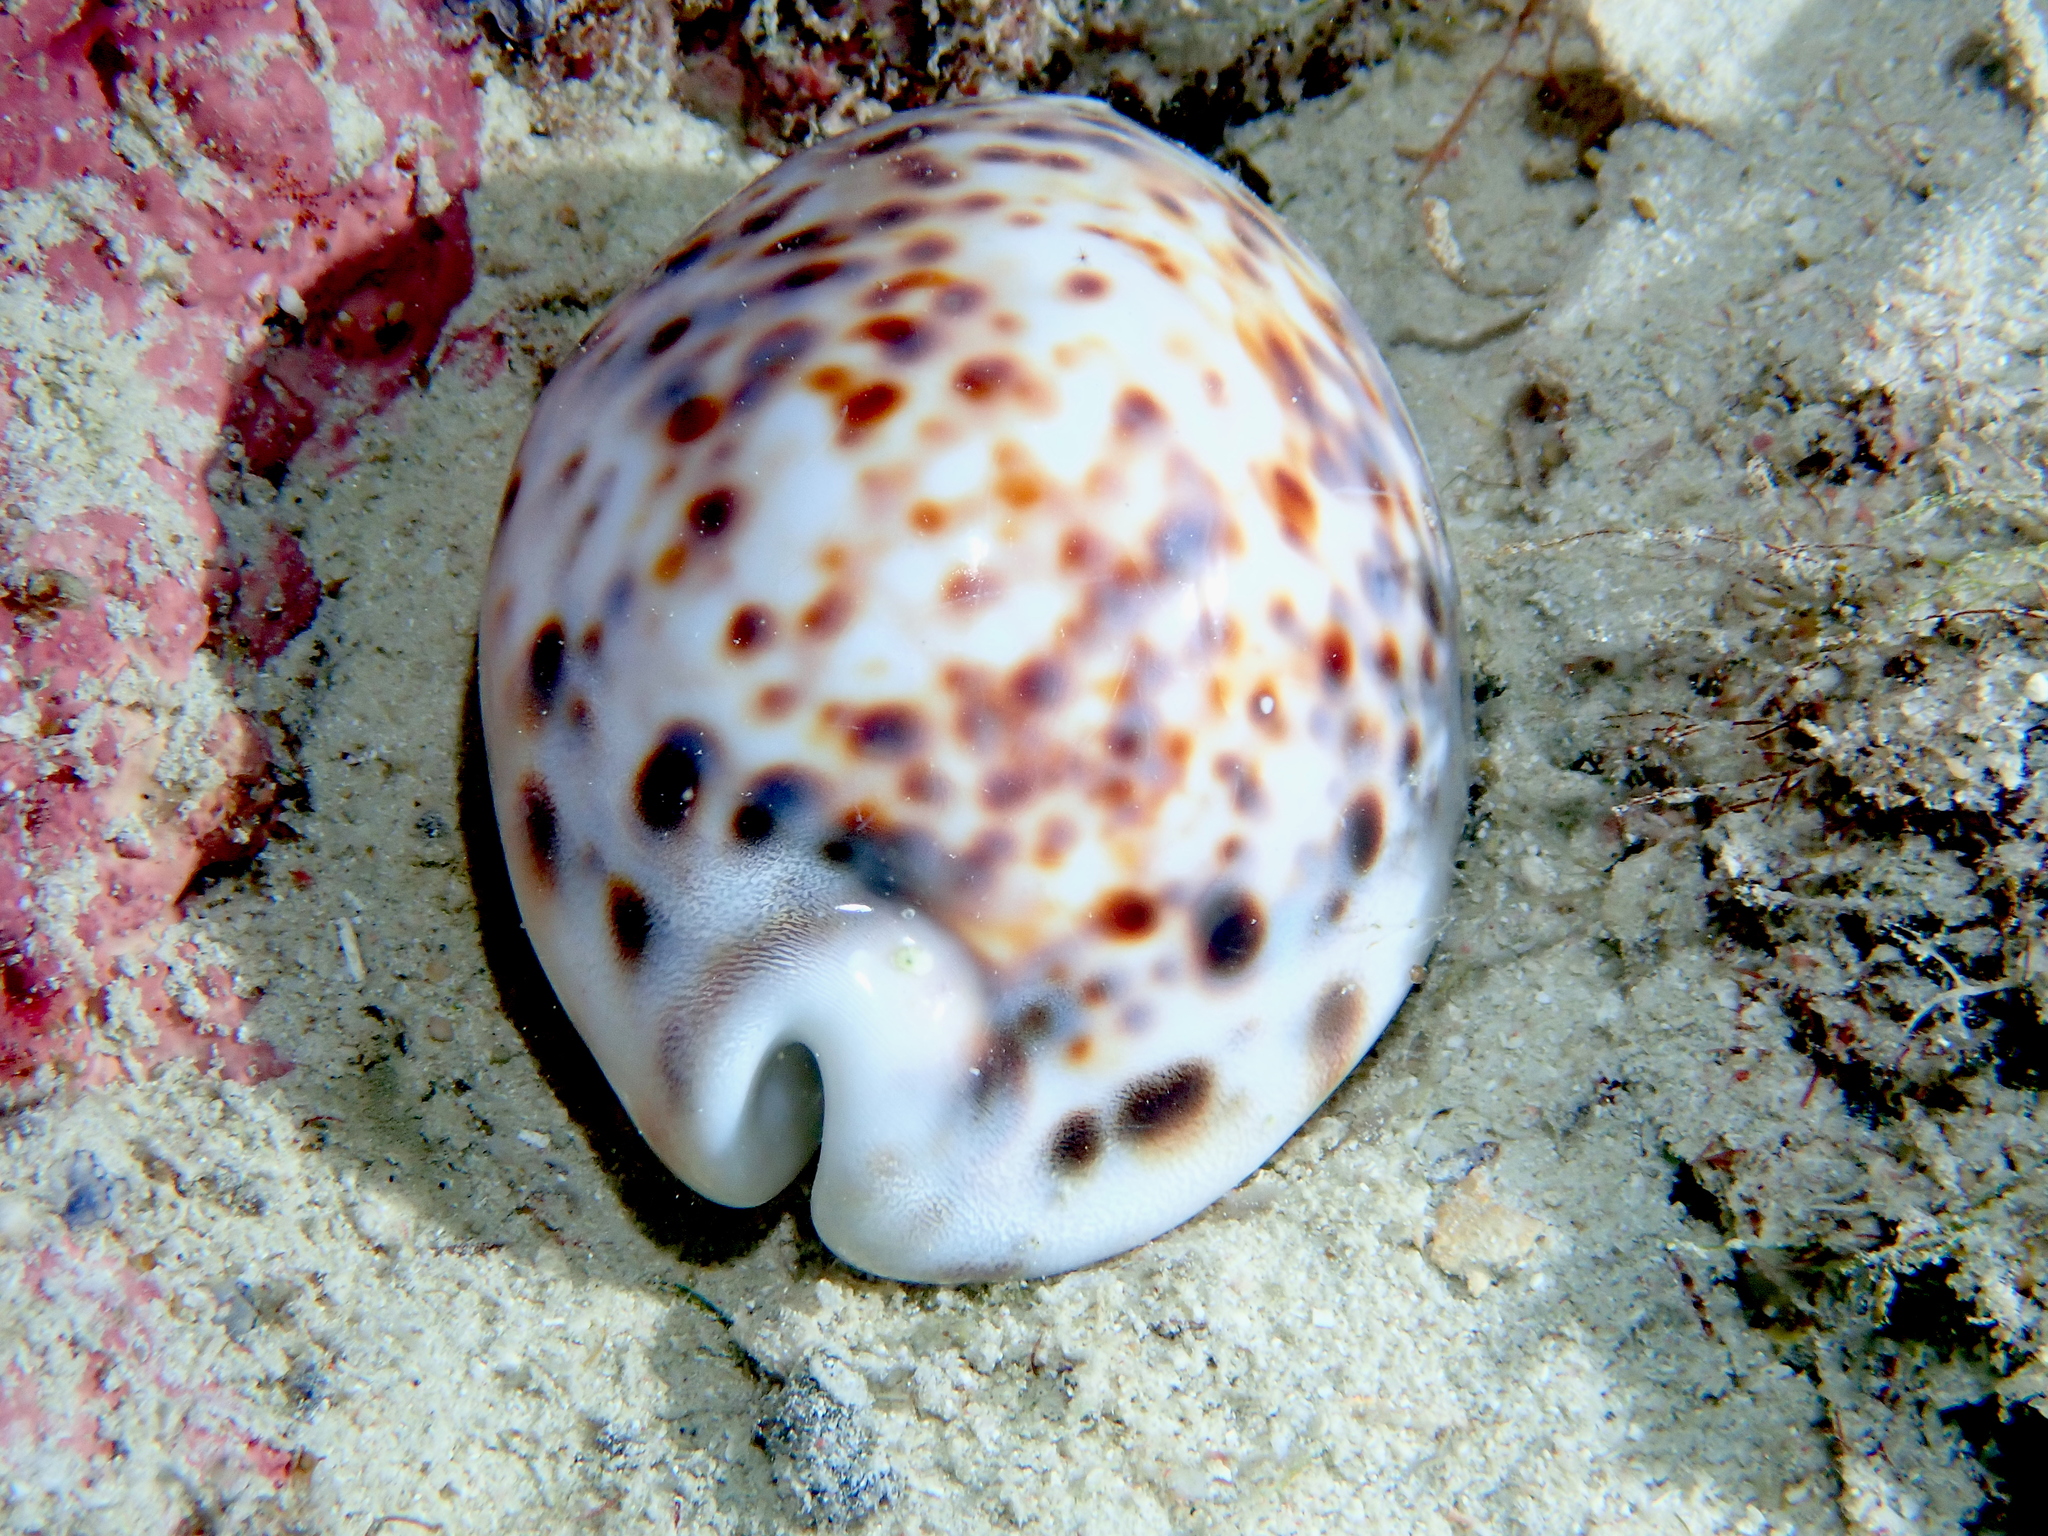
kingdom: Animalia
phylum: Mollusca
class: Gastropoda
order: Littorinimorpha
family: Cypraeidae
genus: Cypraea
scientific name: Cypraea tigris
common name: Tiger cowrie
